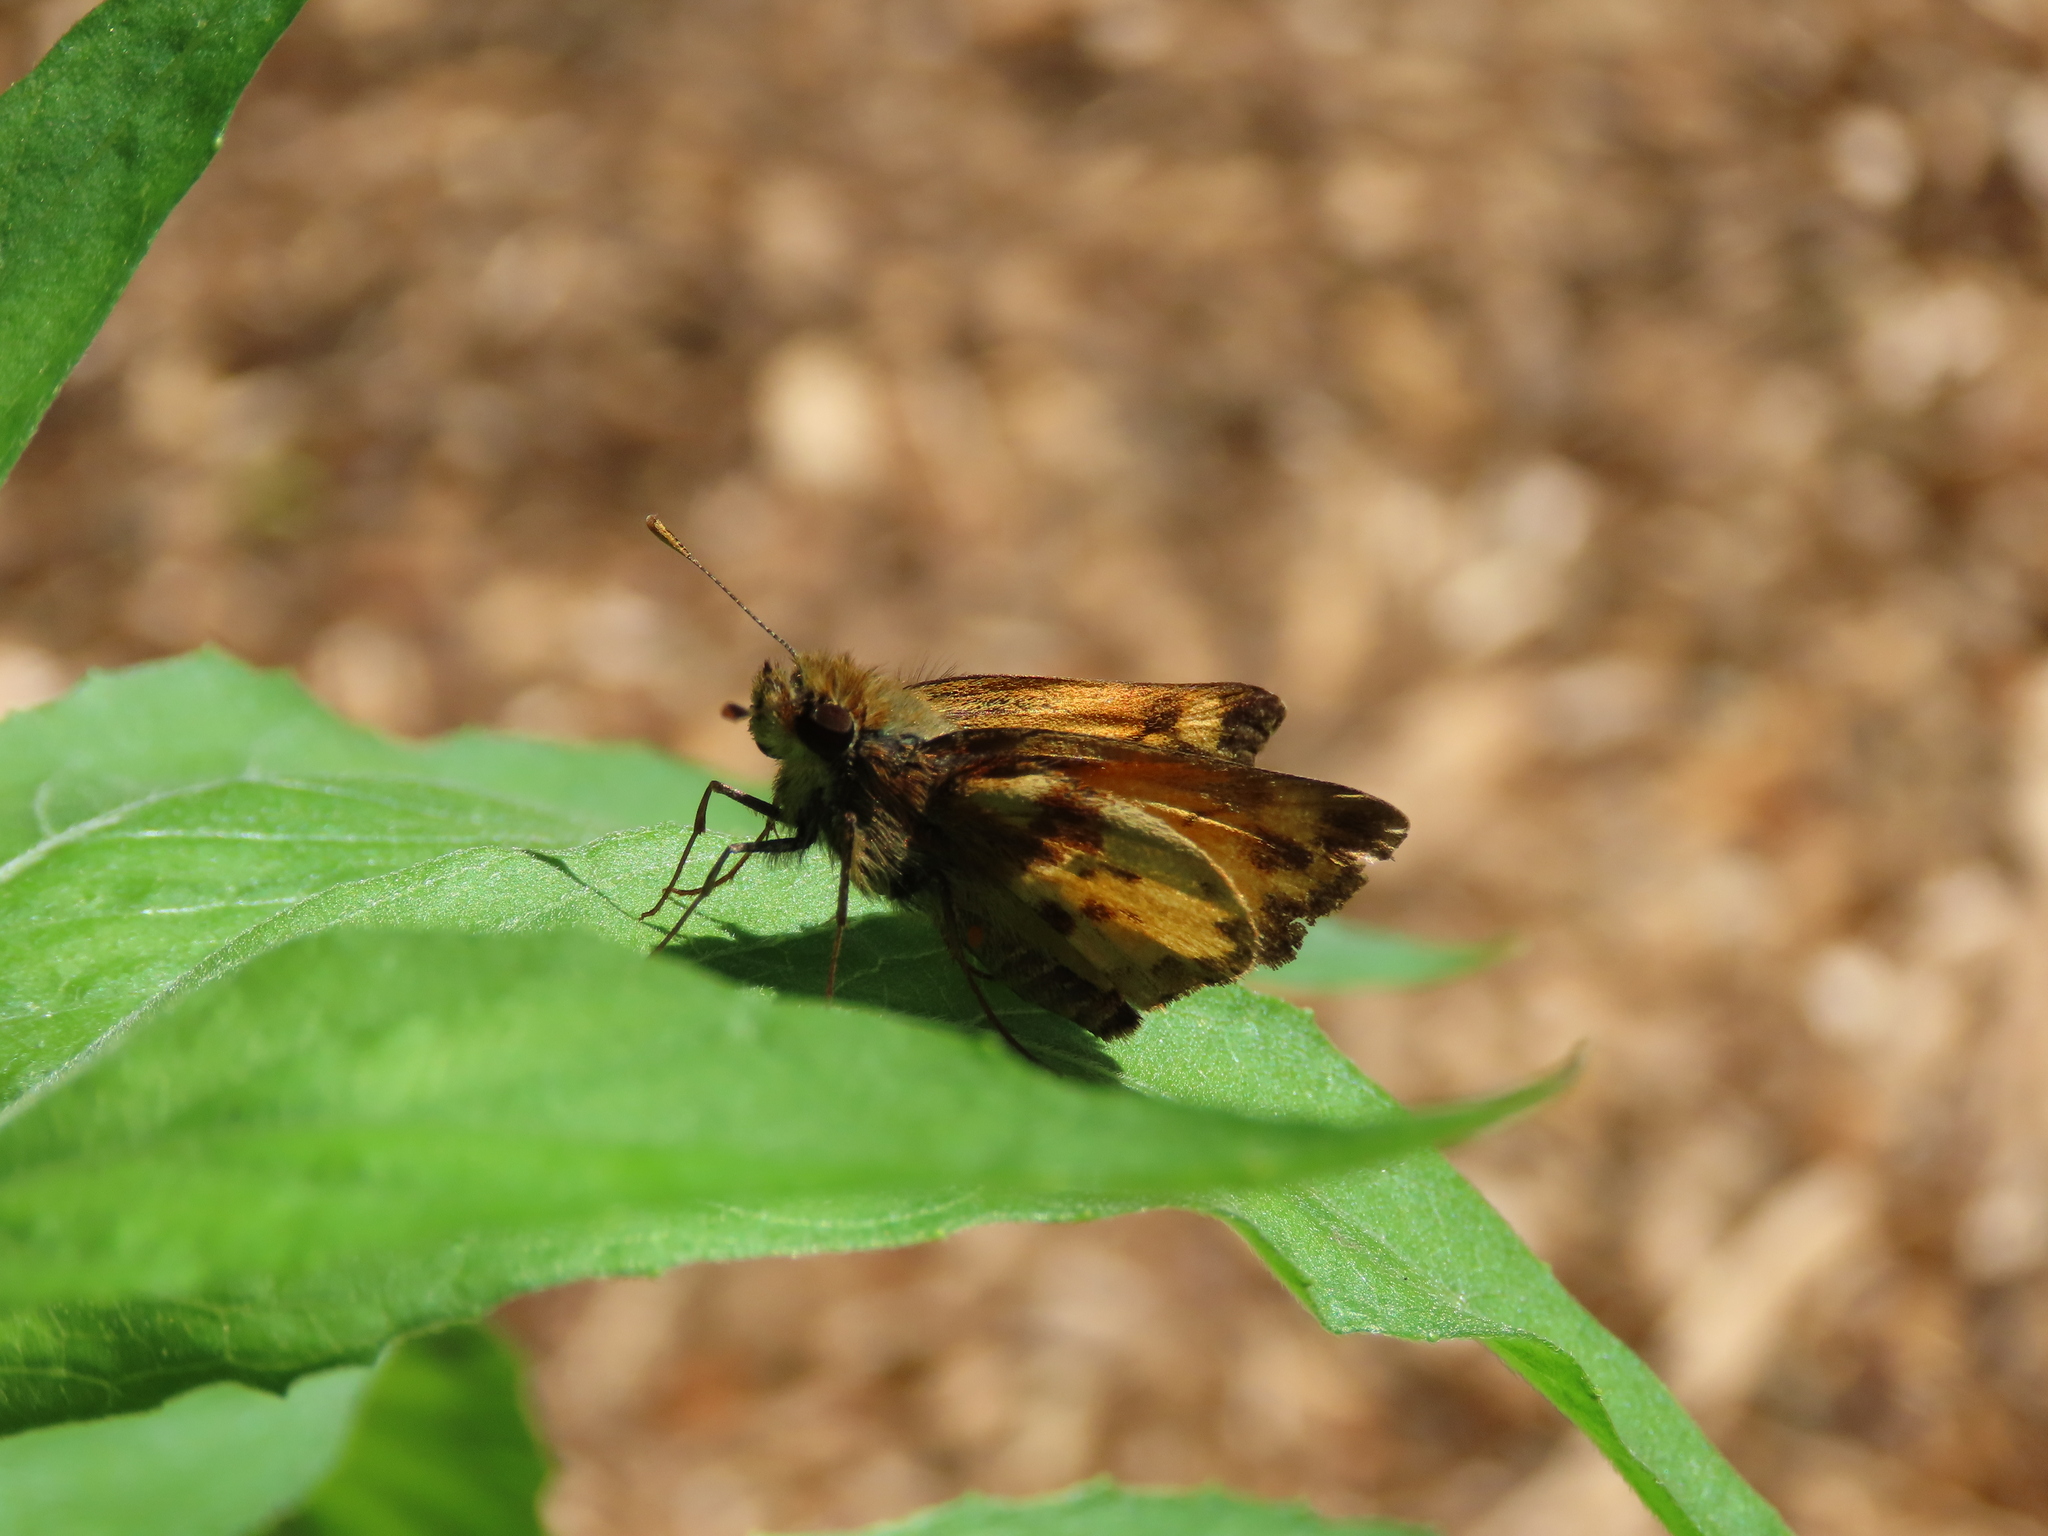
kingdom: Animalia
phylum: Arthropoda
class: Insecta
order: Lepidoptera
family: Hesperiidae
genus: Lon
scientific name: Lon zabulon
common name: Zabulon skipper
